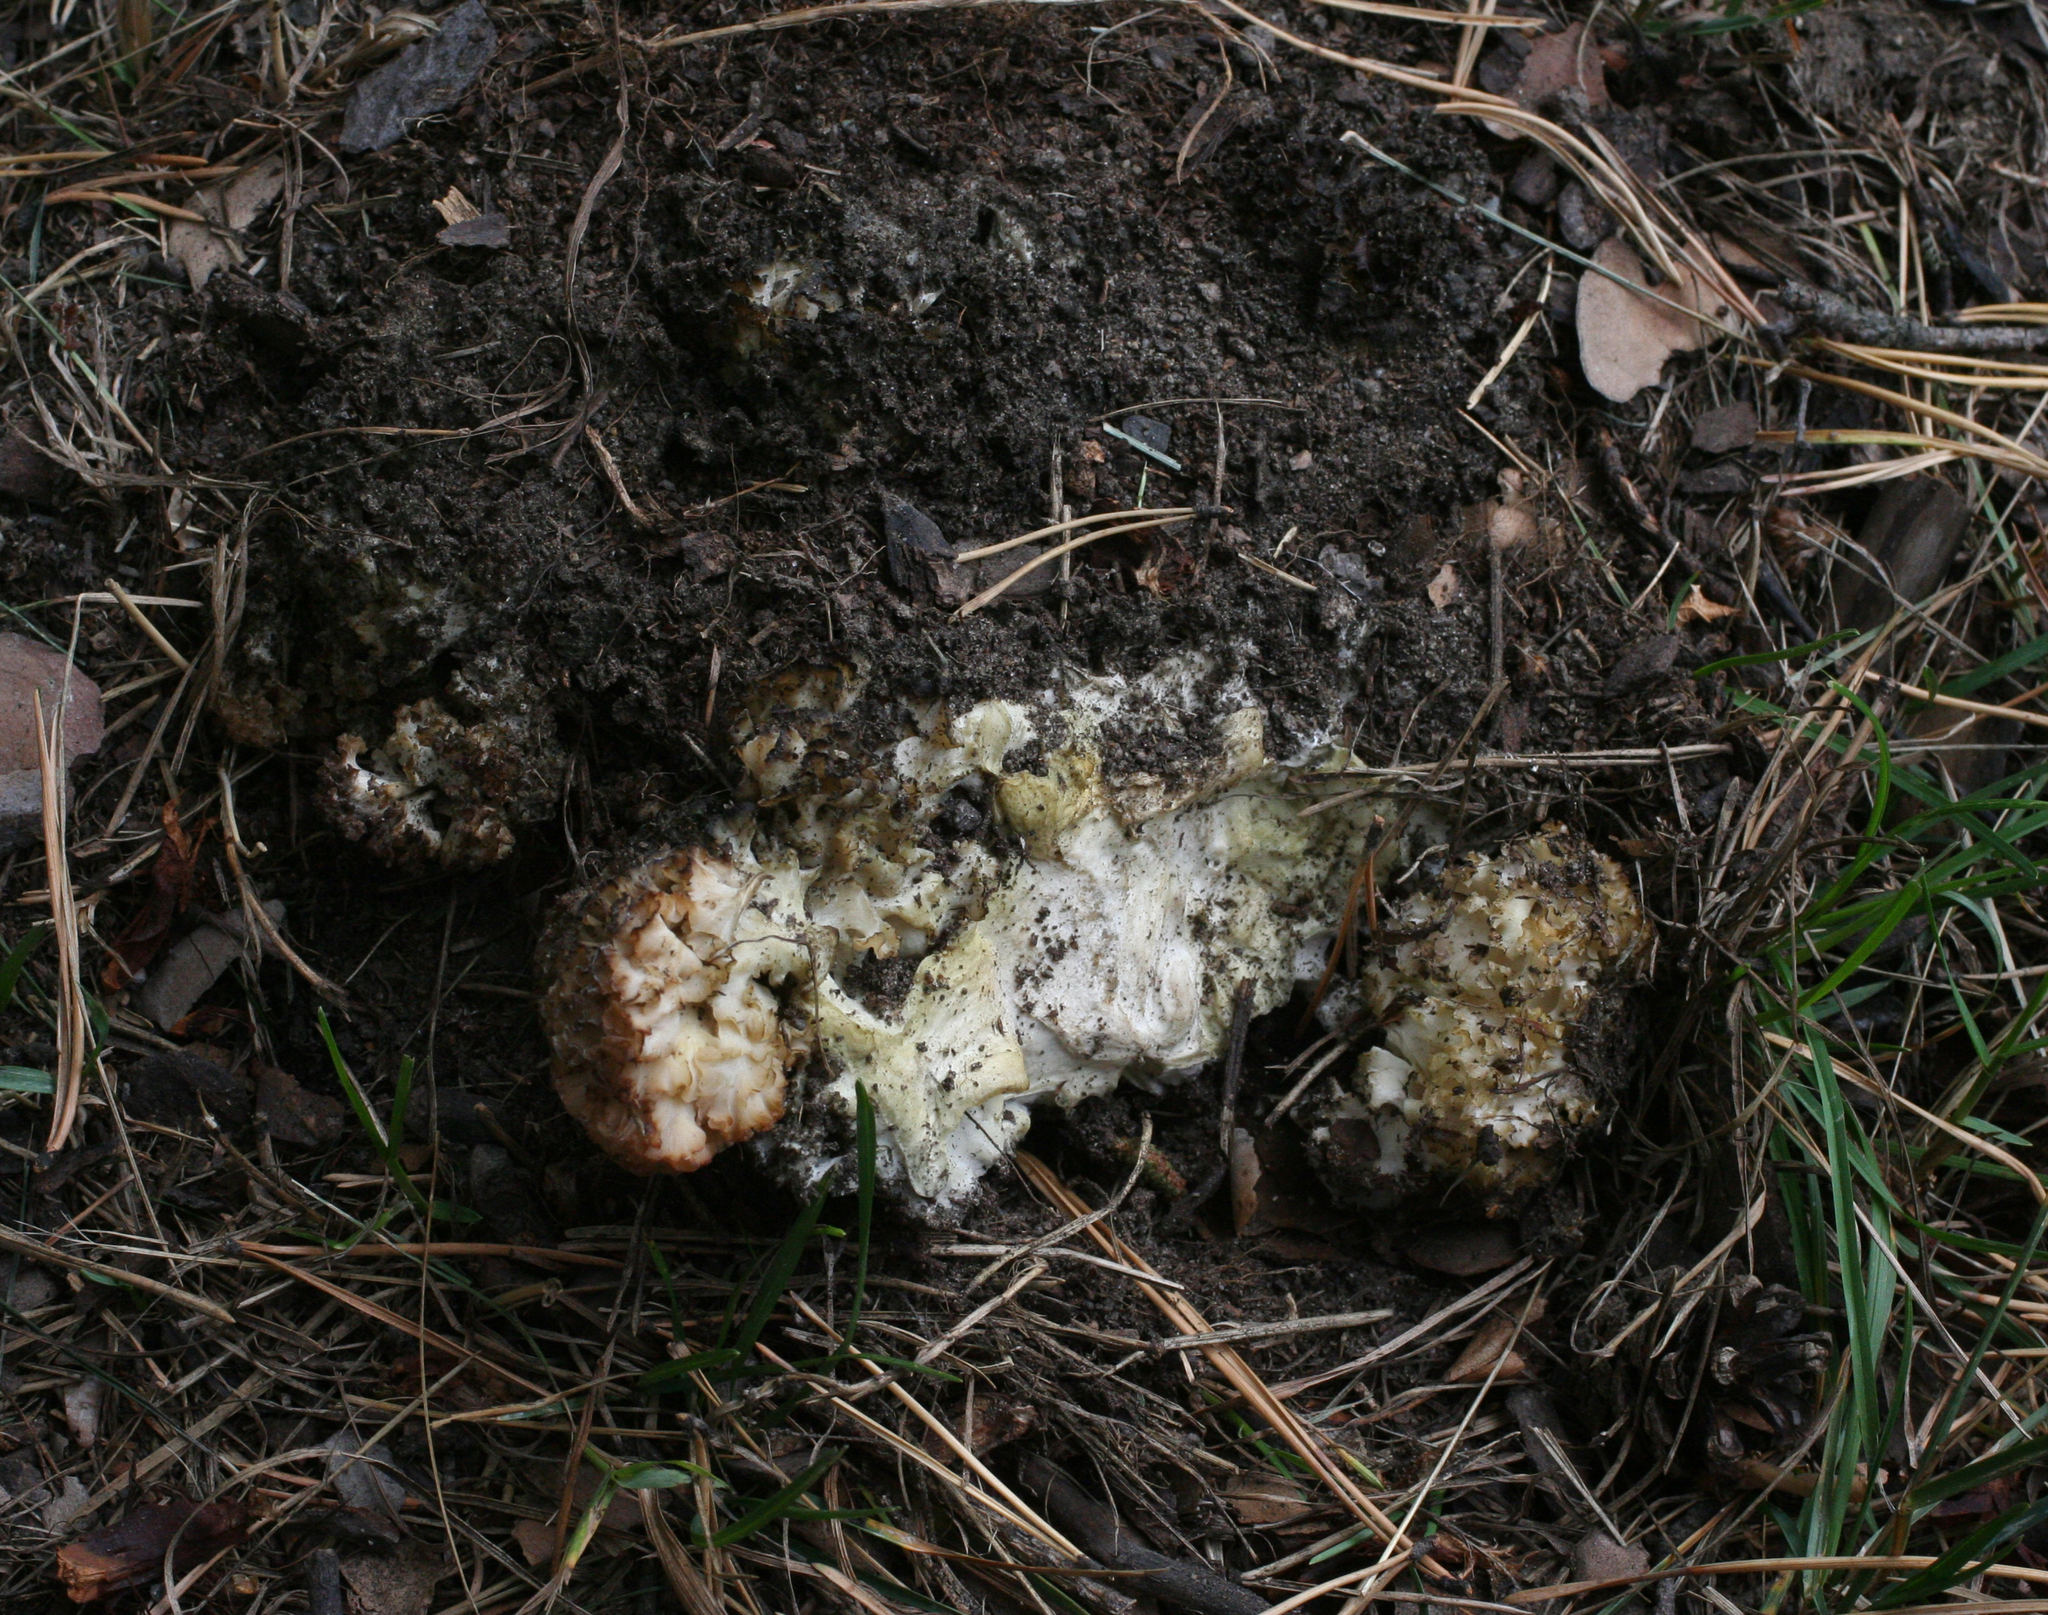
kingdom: Fungi
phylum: Basidiomycota
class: Agaricomycetes
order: Polyporales
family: Sparassidaceae
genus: Sparassis
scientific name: Sparassis crispa
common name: Brain fungus
